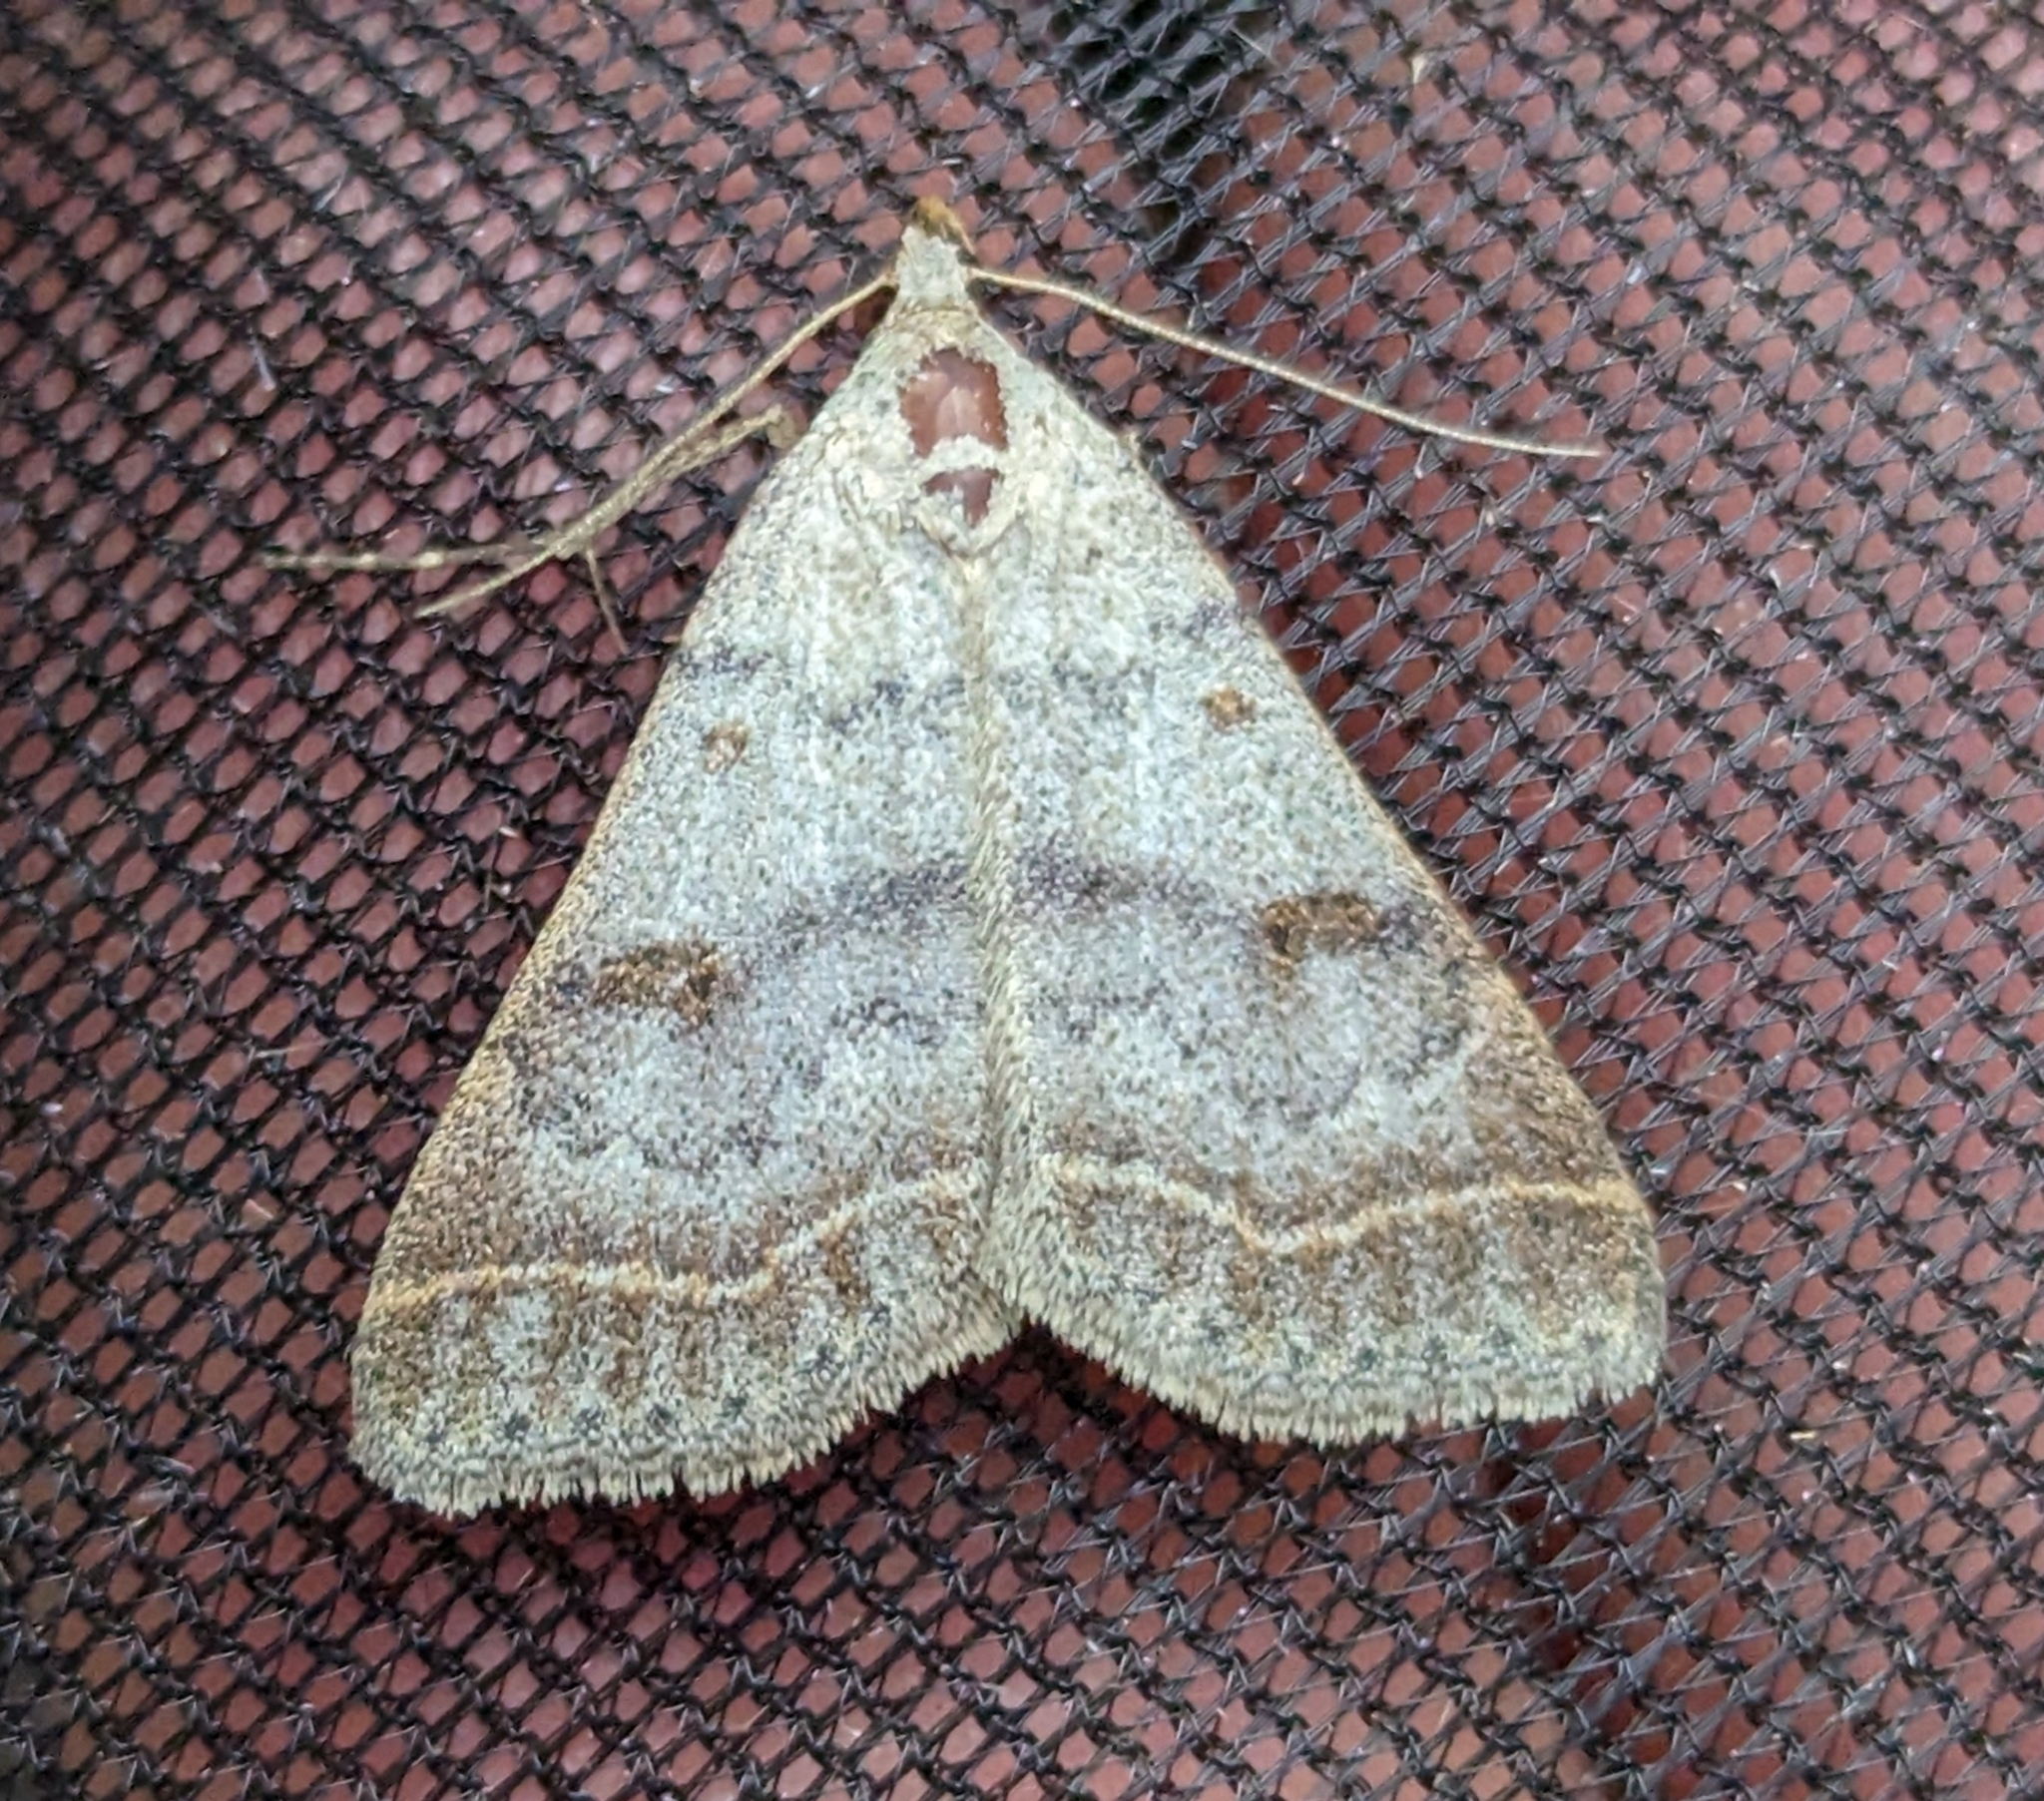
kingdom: Animalia
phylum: Arthropoda
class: Insecta
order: Lepidoptera
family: Erebidae
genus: Bleptina
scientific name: Bleptina caradrinalis
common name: Bent-winged owlet
